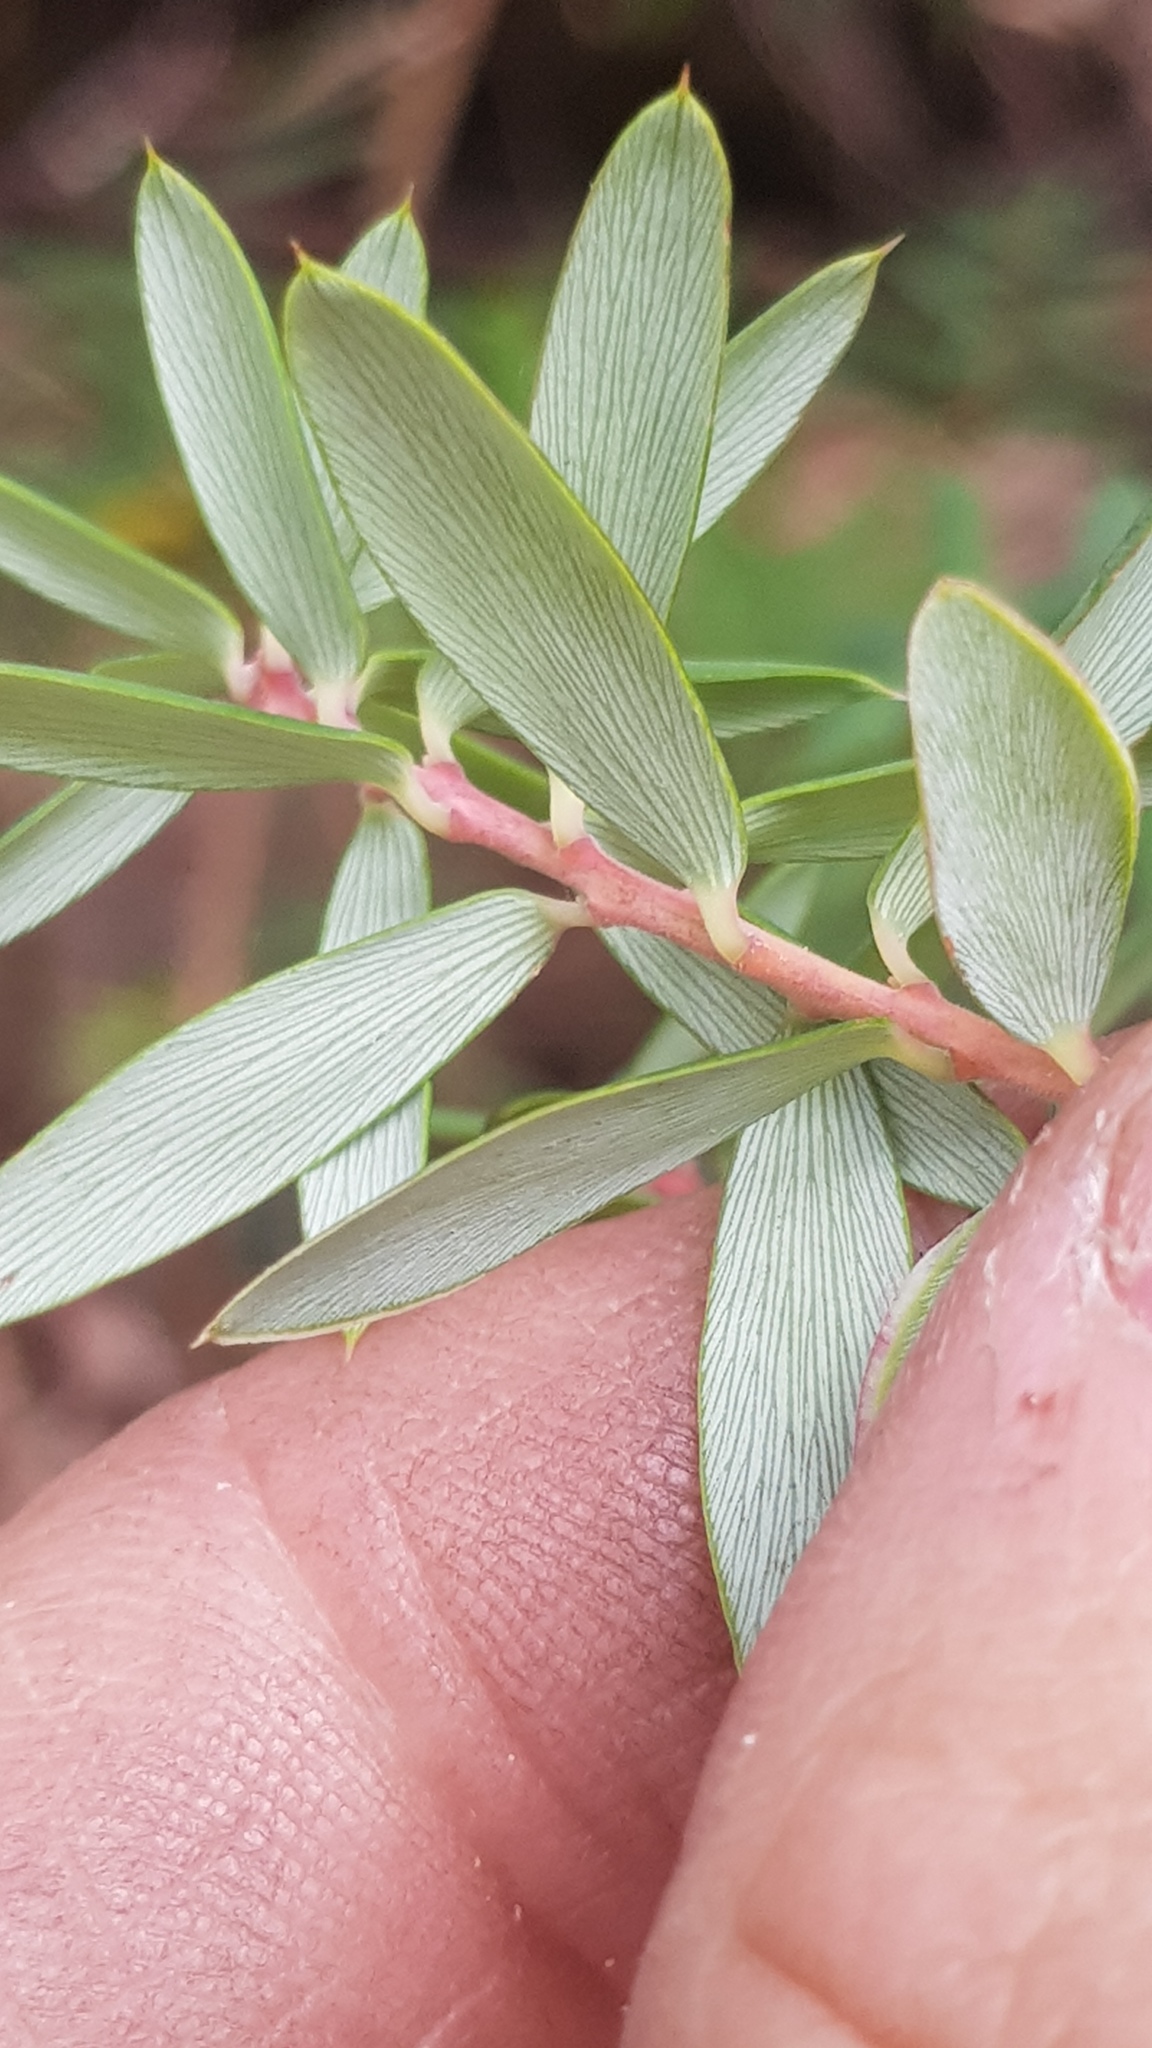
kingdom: Plantae
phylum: Tracheophyta
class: Magnoliopsida
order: Ericales
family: Ericaceae
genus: Monotoca
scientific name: Monotoca glauca
